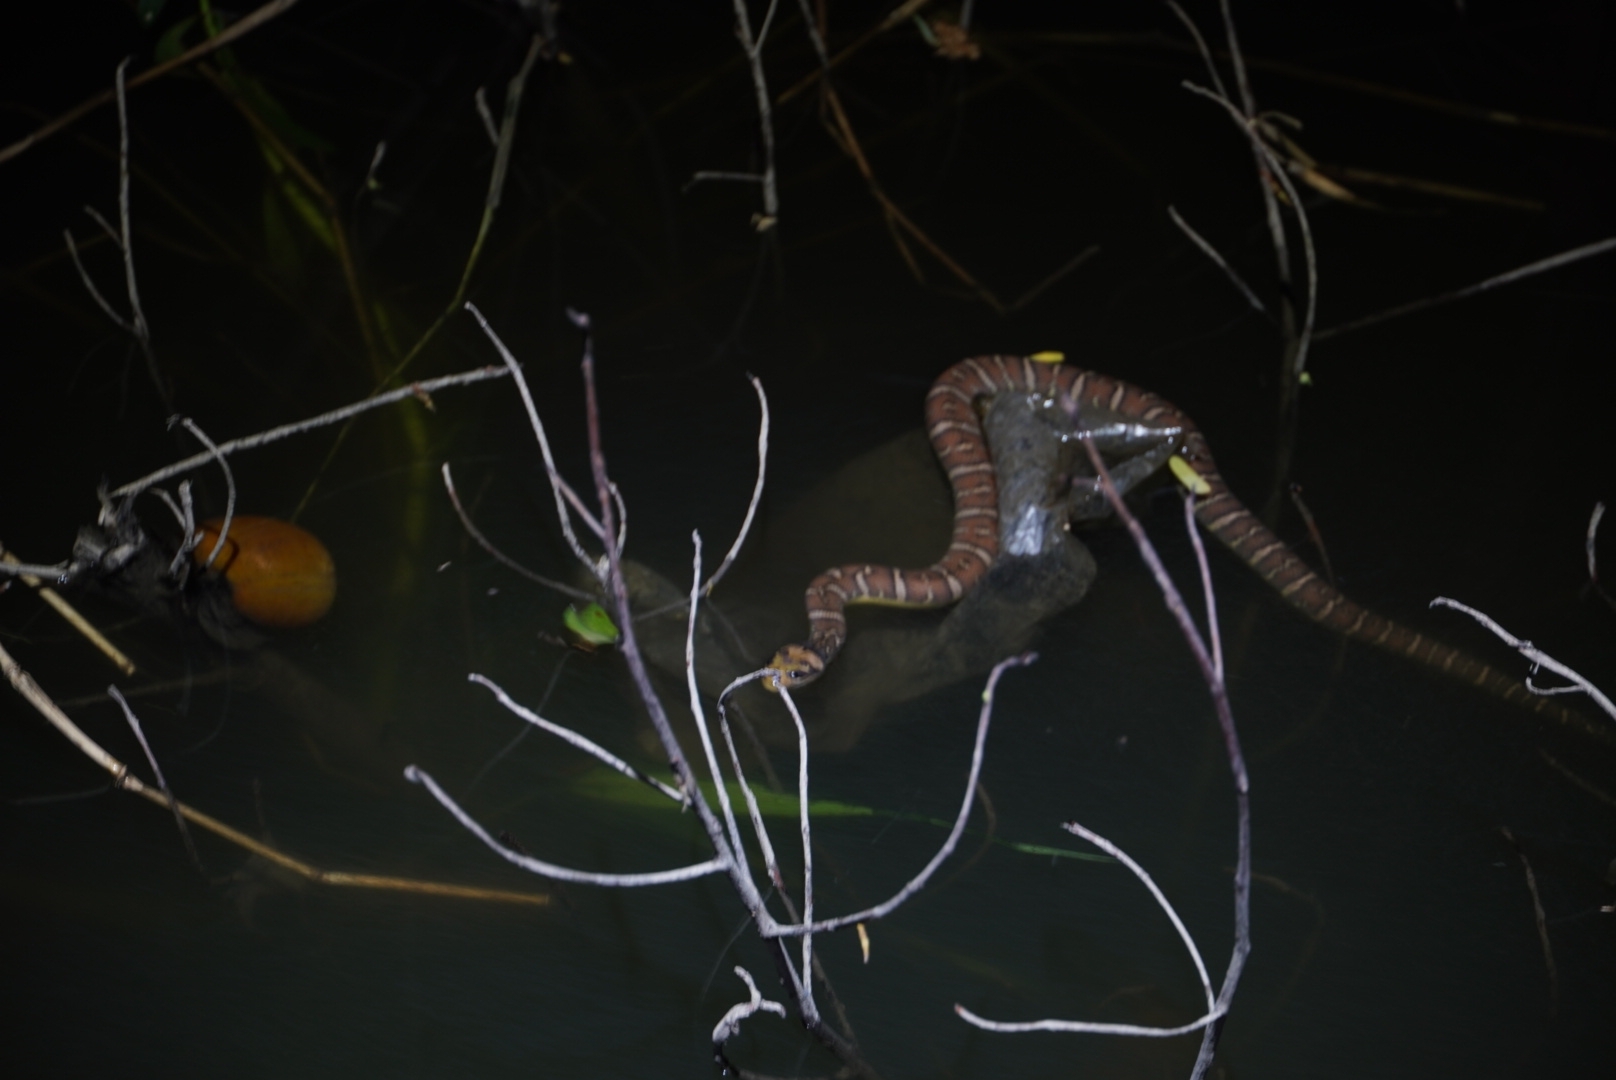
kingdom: Animalia
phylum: Chordata
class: Squamata
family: Homalopsidae
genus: Homalopsis
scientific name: Homalopsis mereljcoxi
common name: Jack’s water snake
